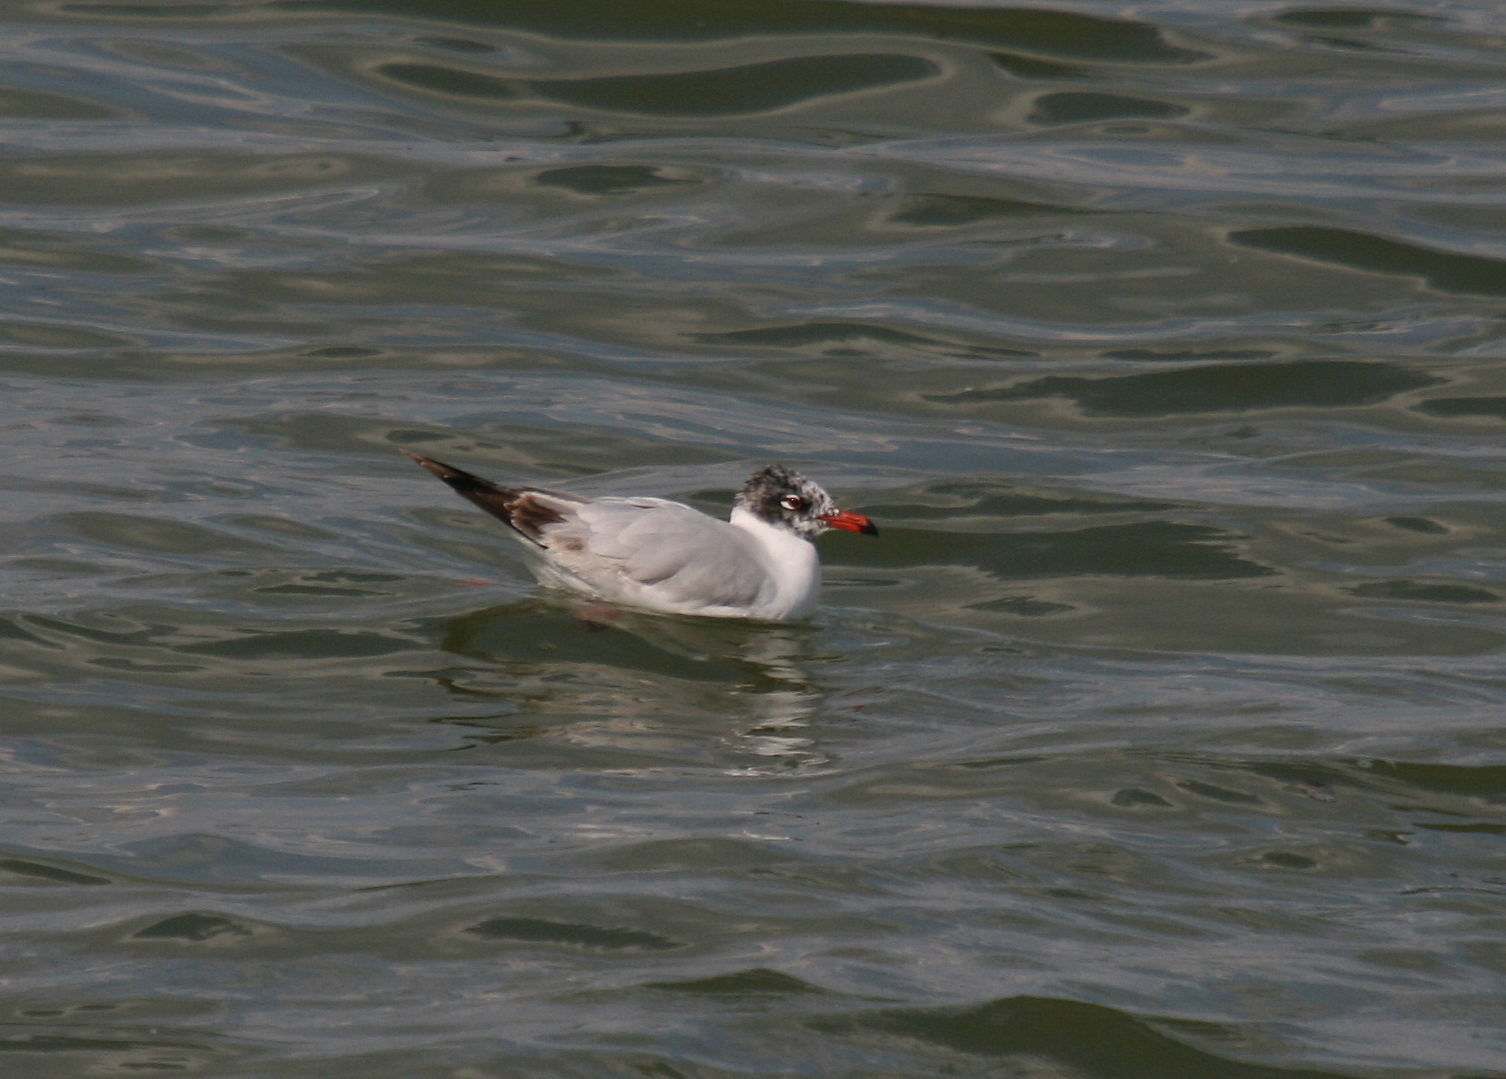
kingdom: Animalia
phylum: Chordata
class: Aves
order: Charadriiformes
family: Laridae
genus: Ichthyaetus
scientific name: Ichthyaetus melanocephalus
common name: Mediterranean gull
